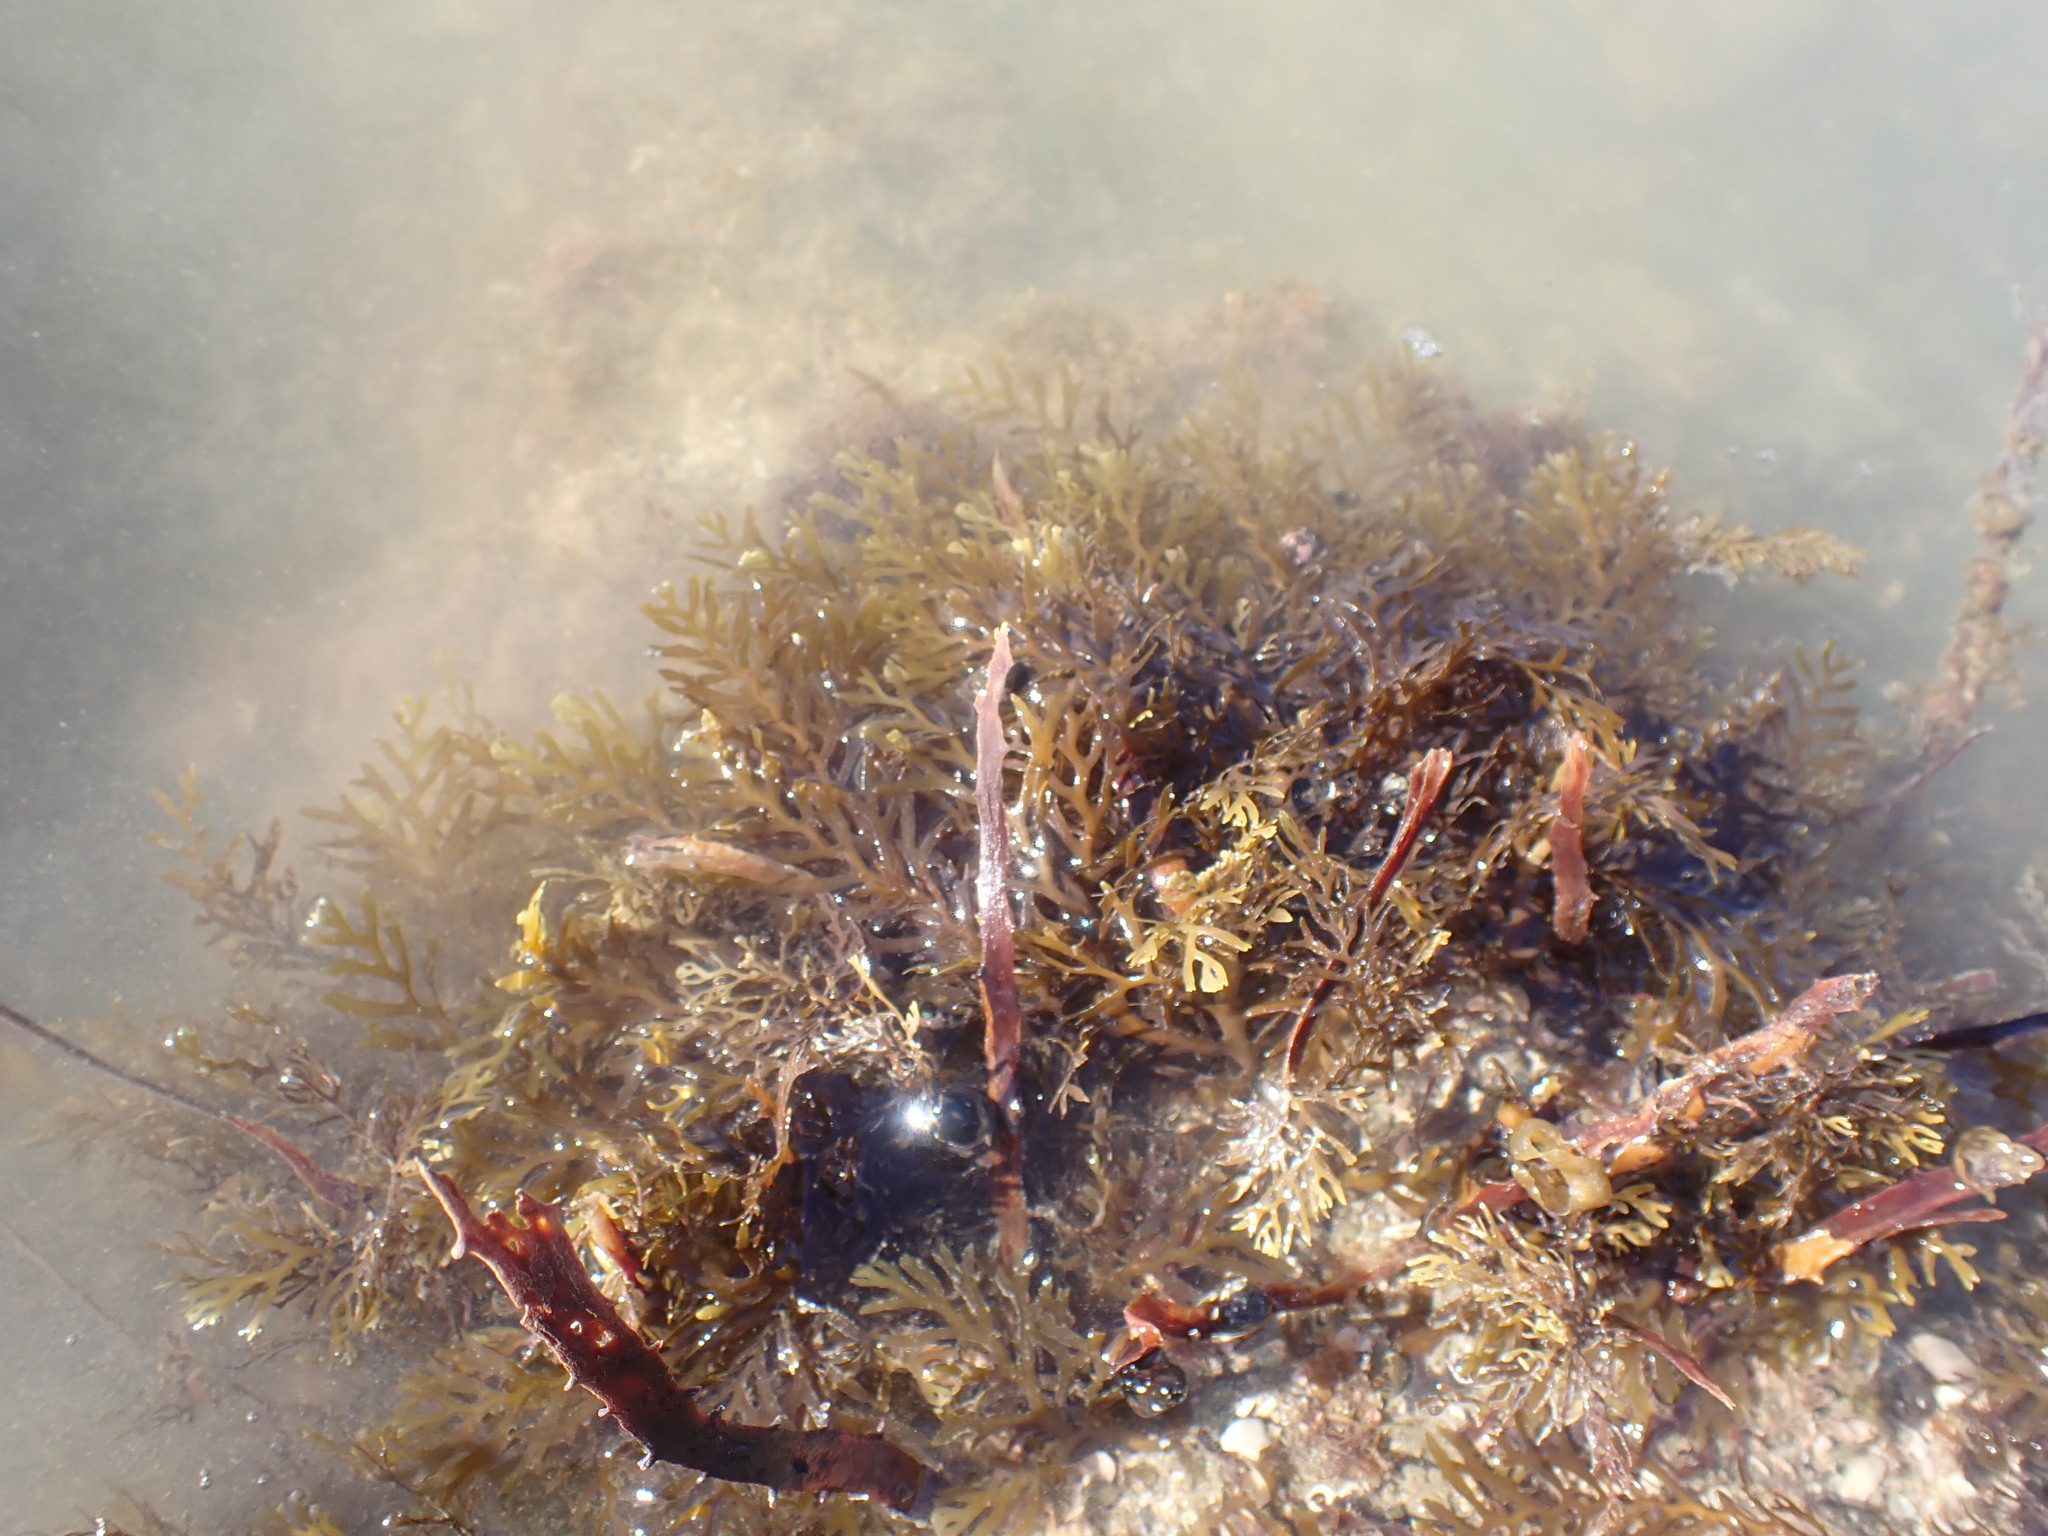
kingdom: Chromista
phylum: Ochrophyta
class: Phaeophyceae
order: Fucales
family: Sargassaceae
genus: Carpophyllum
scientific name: Carpophyllum plumosum
